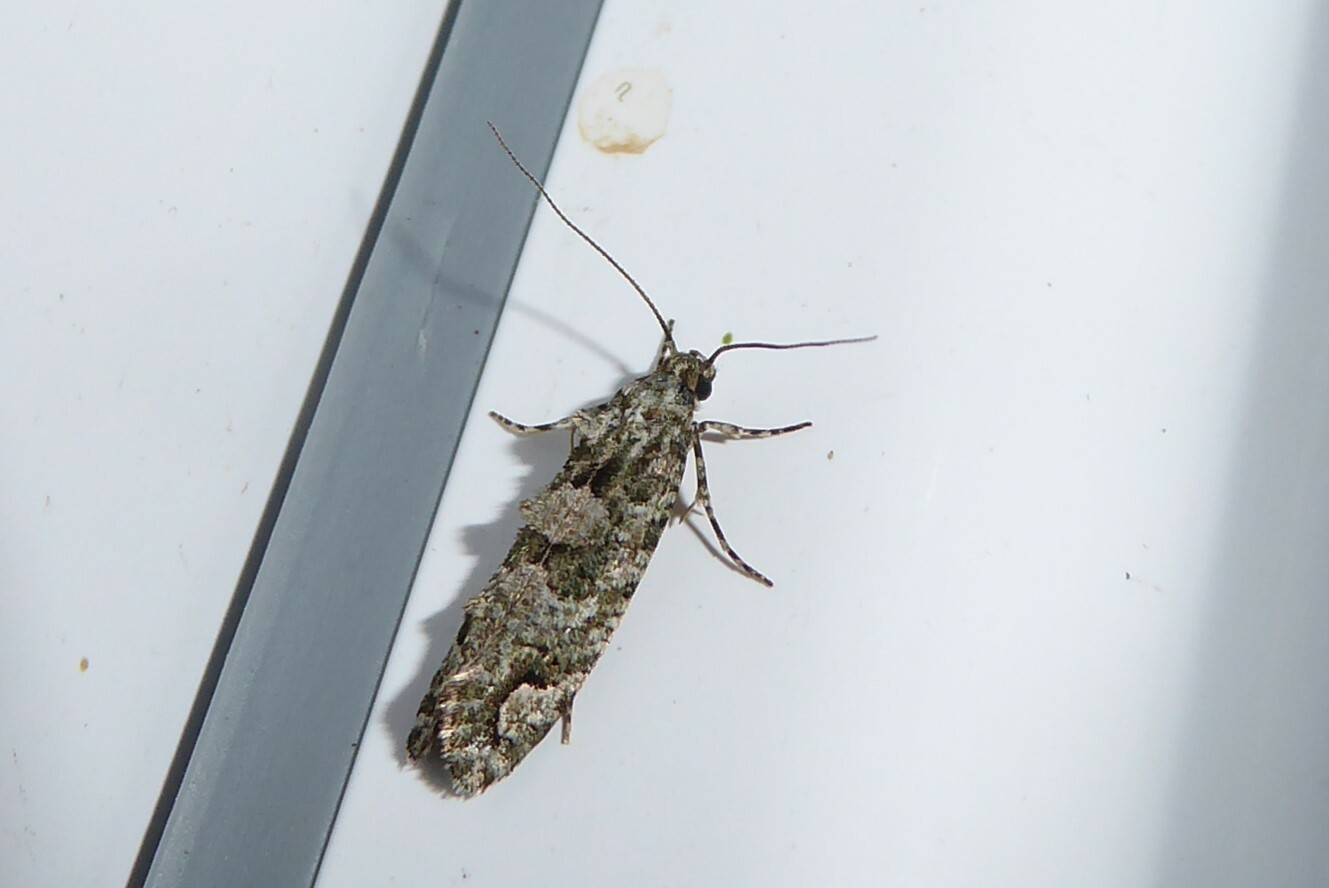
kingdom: Animalia
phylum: Arthropoda
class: Insecta
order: Lepidoptera
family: Tineidae
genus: Lysiphragma
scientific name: Lysiphragma howesii
